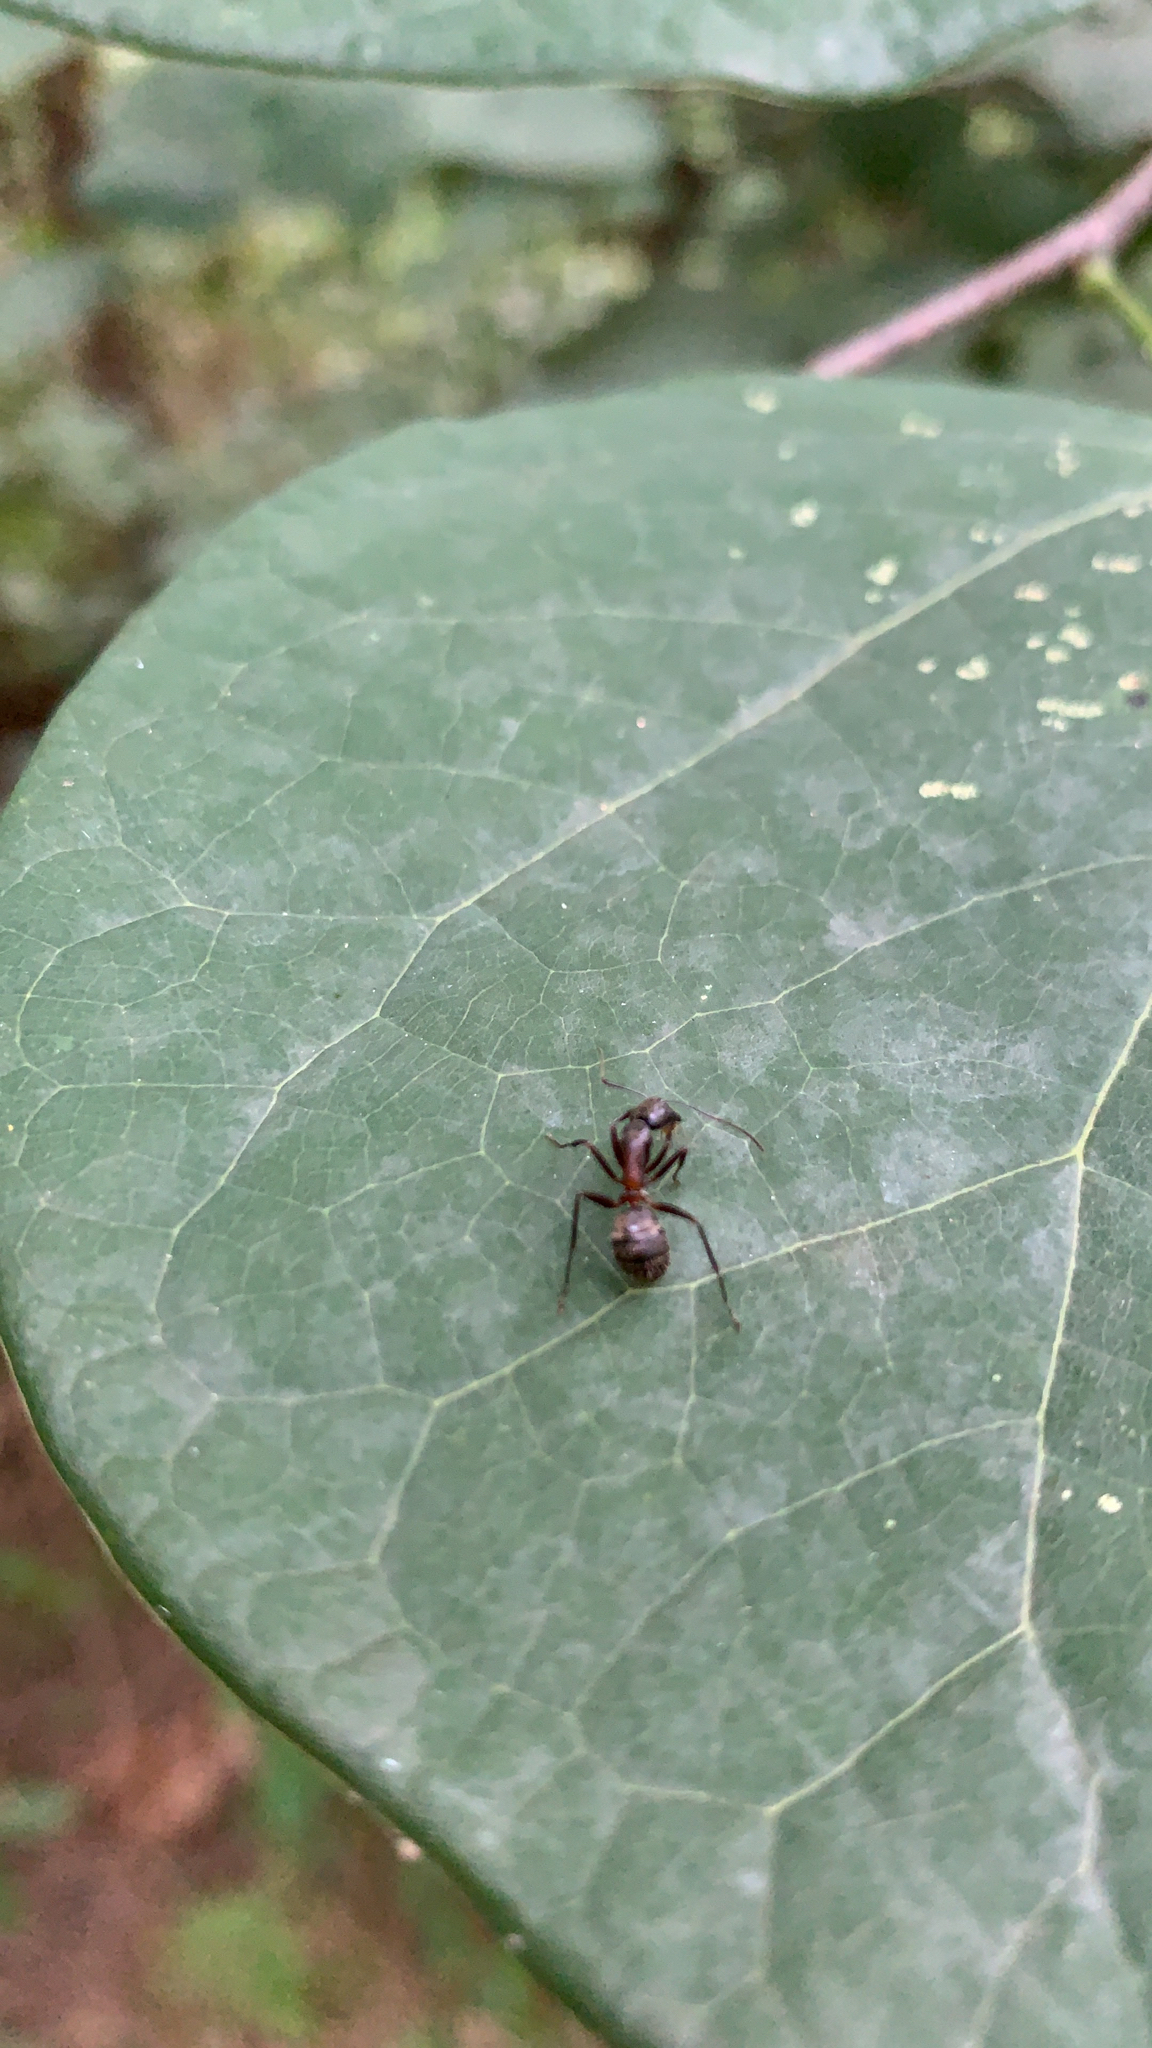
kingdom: Animalia
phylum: Arthropoda
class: Insecta
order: Hymenoptera
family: Formicidae
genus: Camponotus
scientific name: Camponotus chromaiodes
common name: Red carpenter ant
